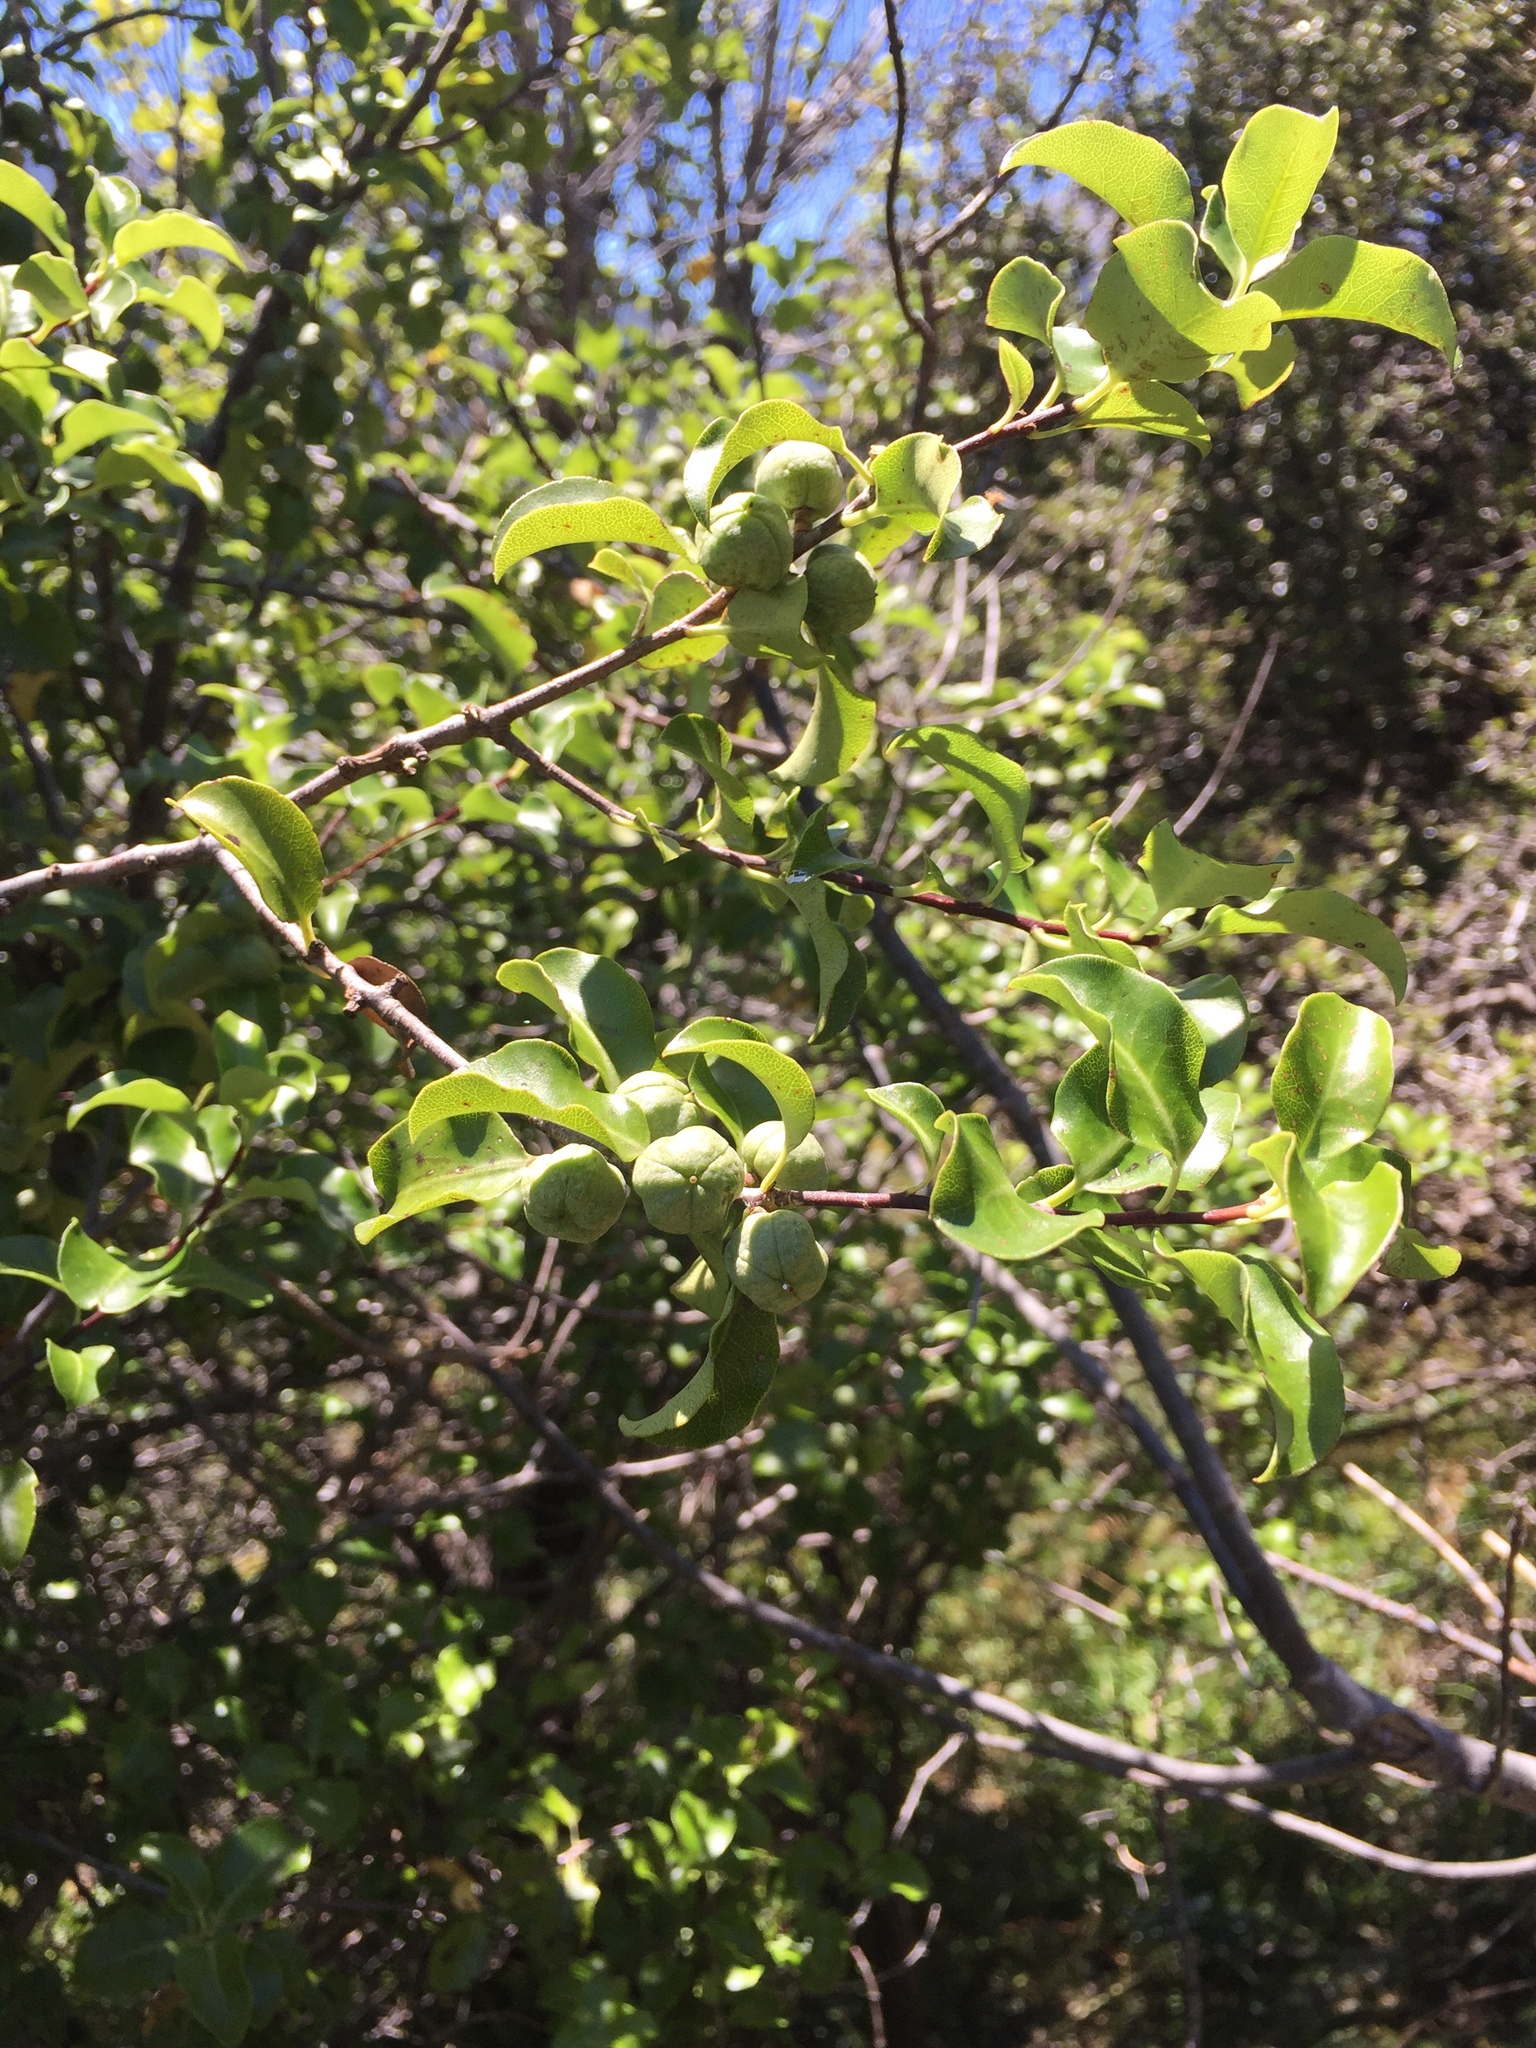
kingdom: Plantae
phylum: Tracheophyta
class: Magnoliopsida
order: Apiales
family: Pittosporaceae
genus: Pittosporum
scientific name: Pittosporum tenuifolium
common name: Kohuhu
